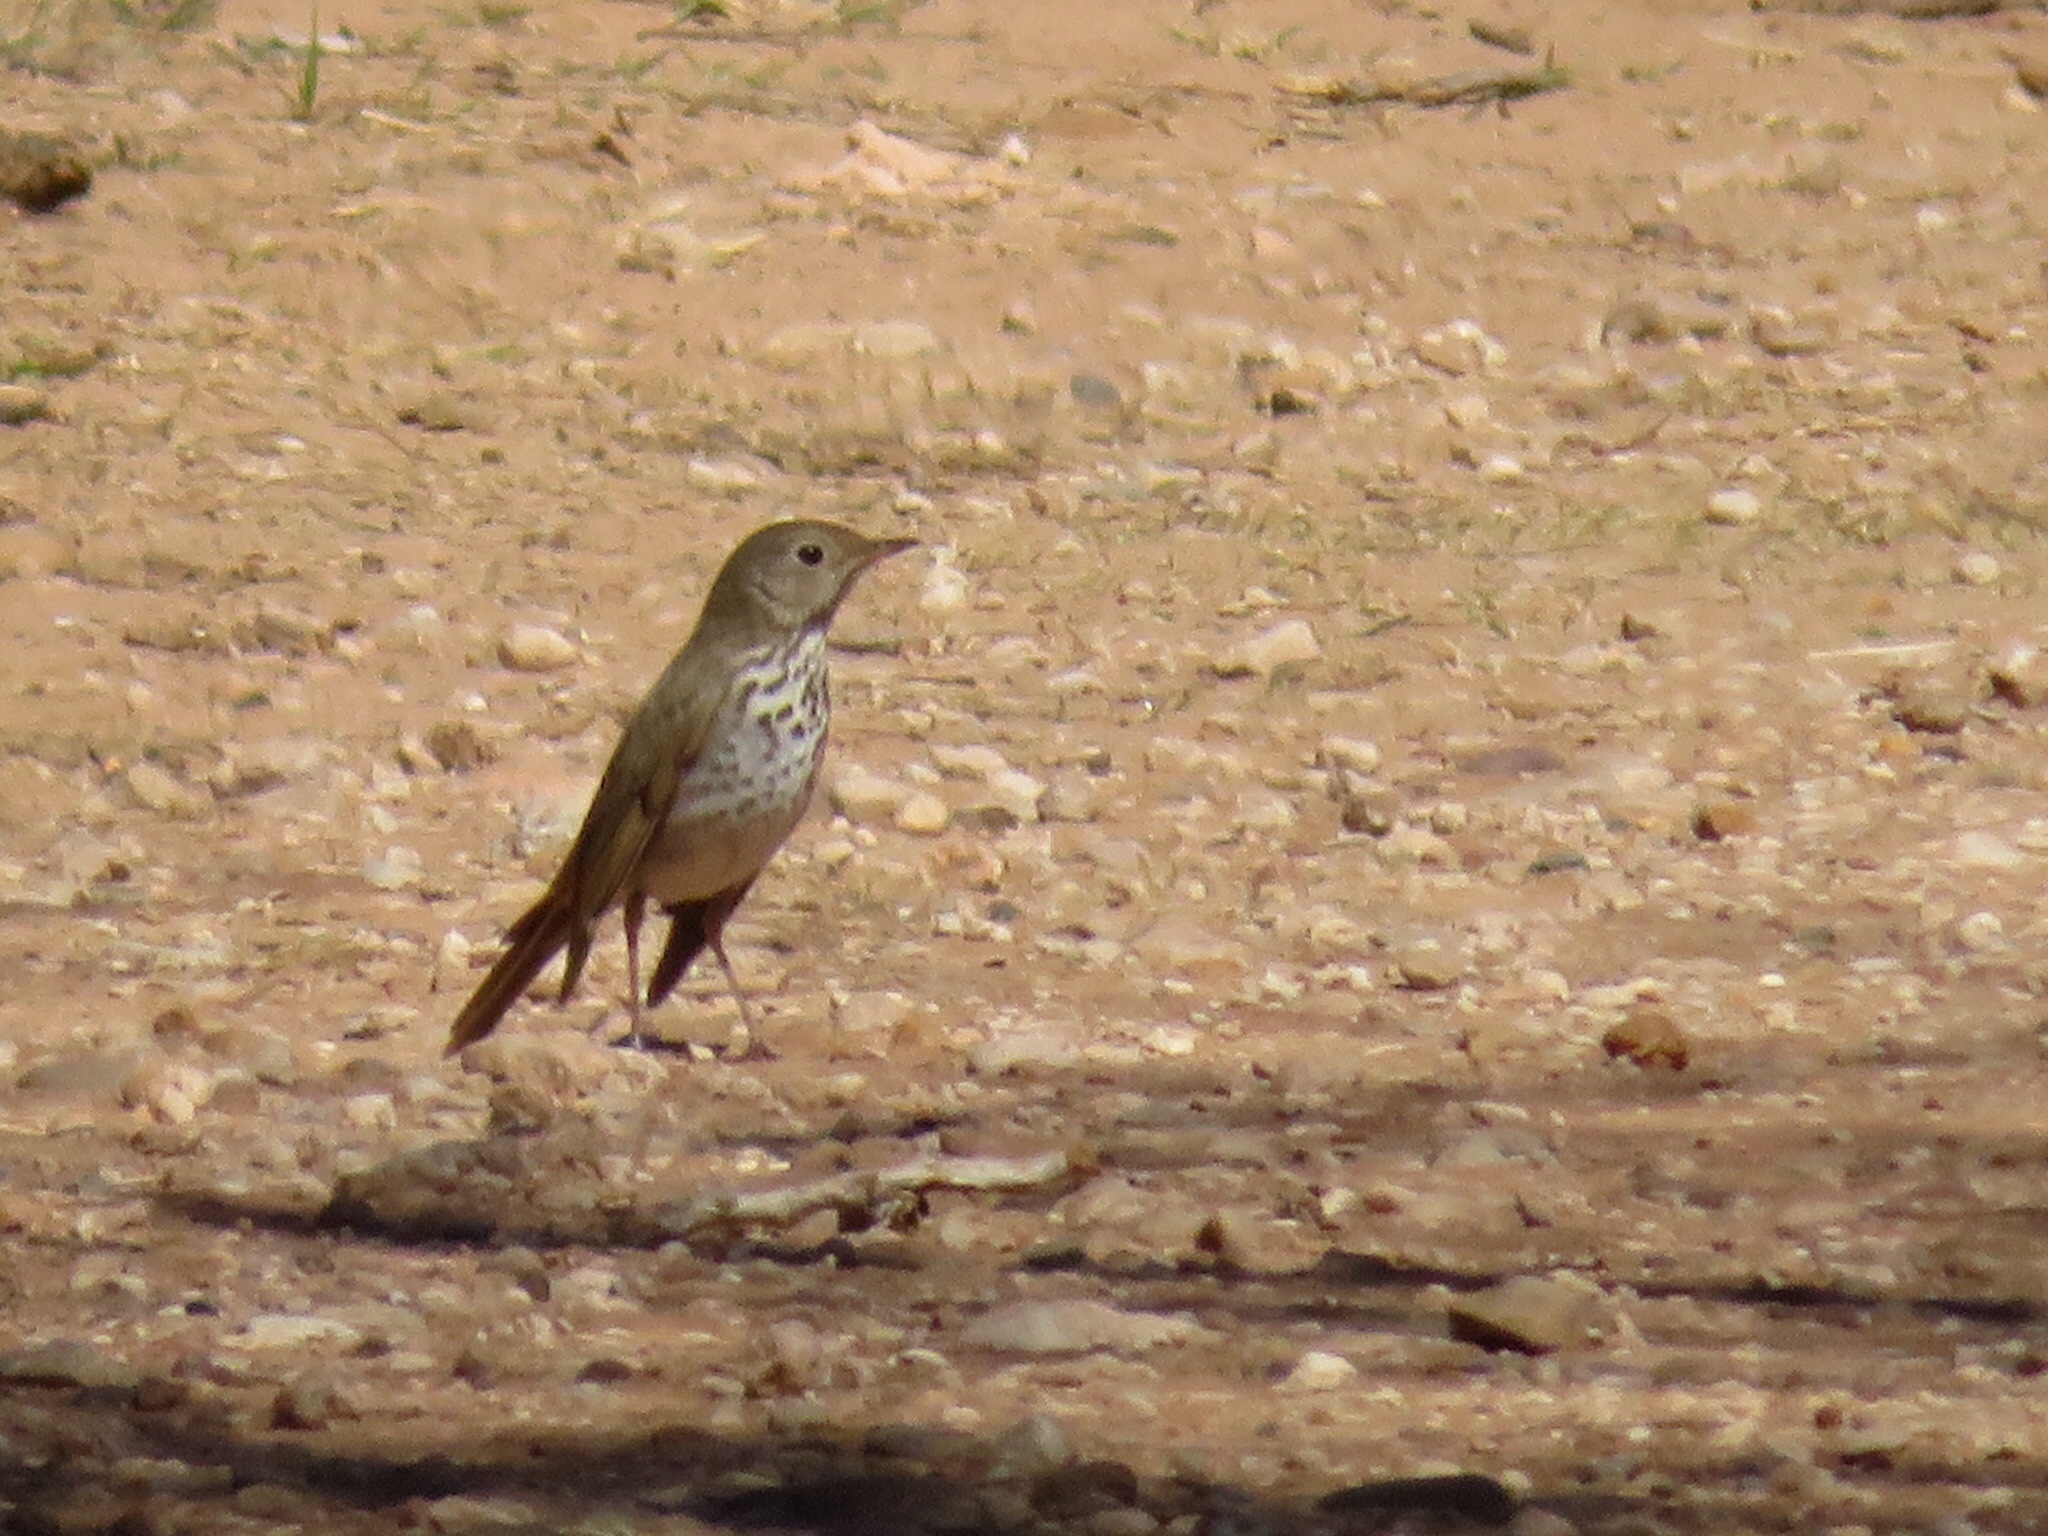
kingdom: Animalia
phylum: Chordata
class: Aves
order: Passeriformes
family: Turdidae
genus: Catharus
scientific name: Catharus guttatus
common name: Hermit thrush
